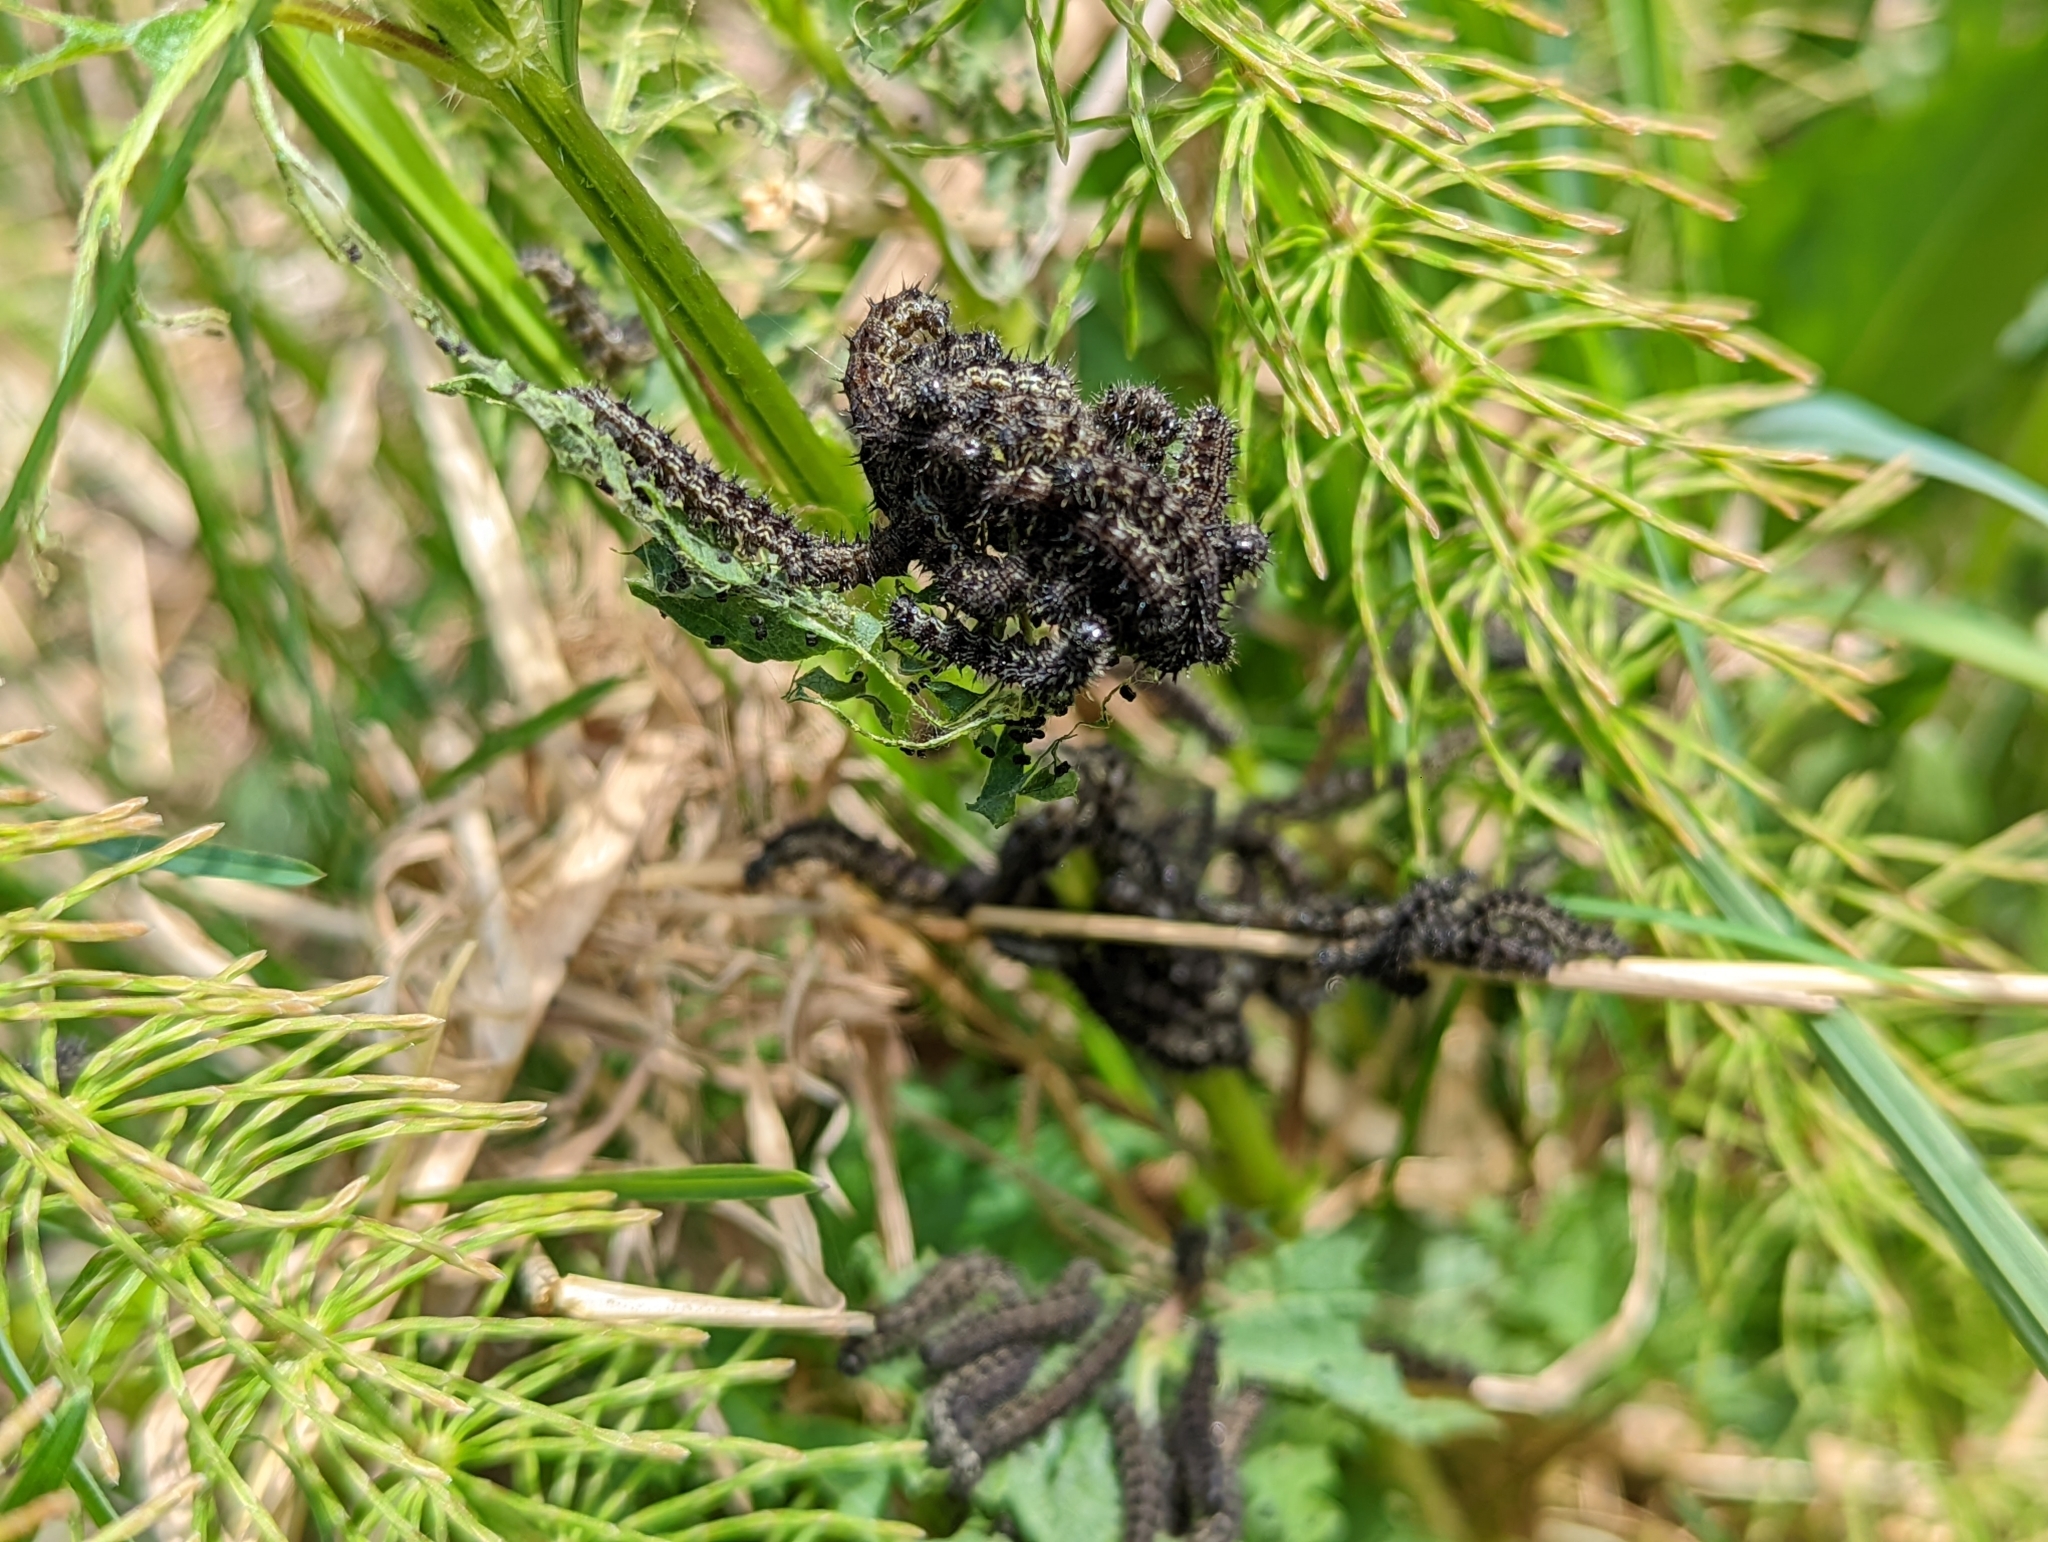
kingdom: Animalia
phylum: Arthropoda
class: Insecta
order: Lepidoptera
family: Nymphalidae
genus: Aglais
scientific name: Aglais milberti
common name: Milbert's tortoiseshell
